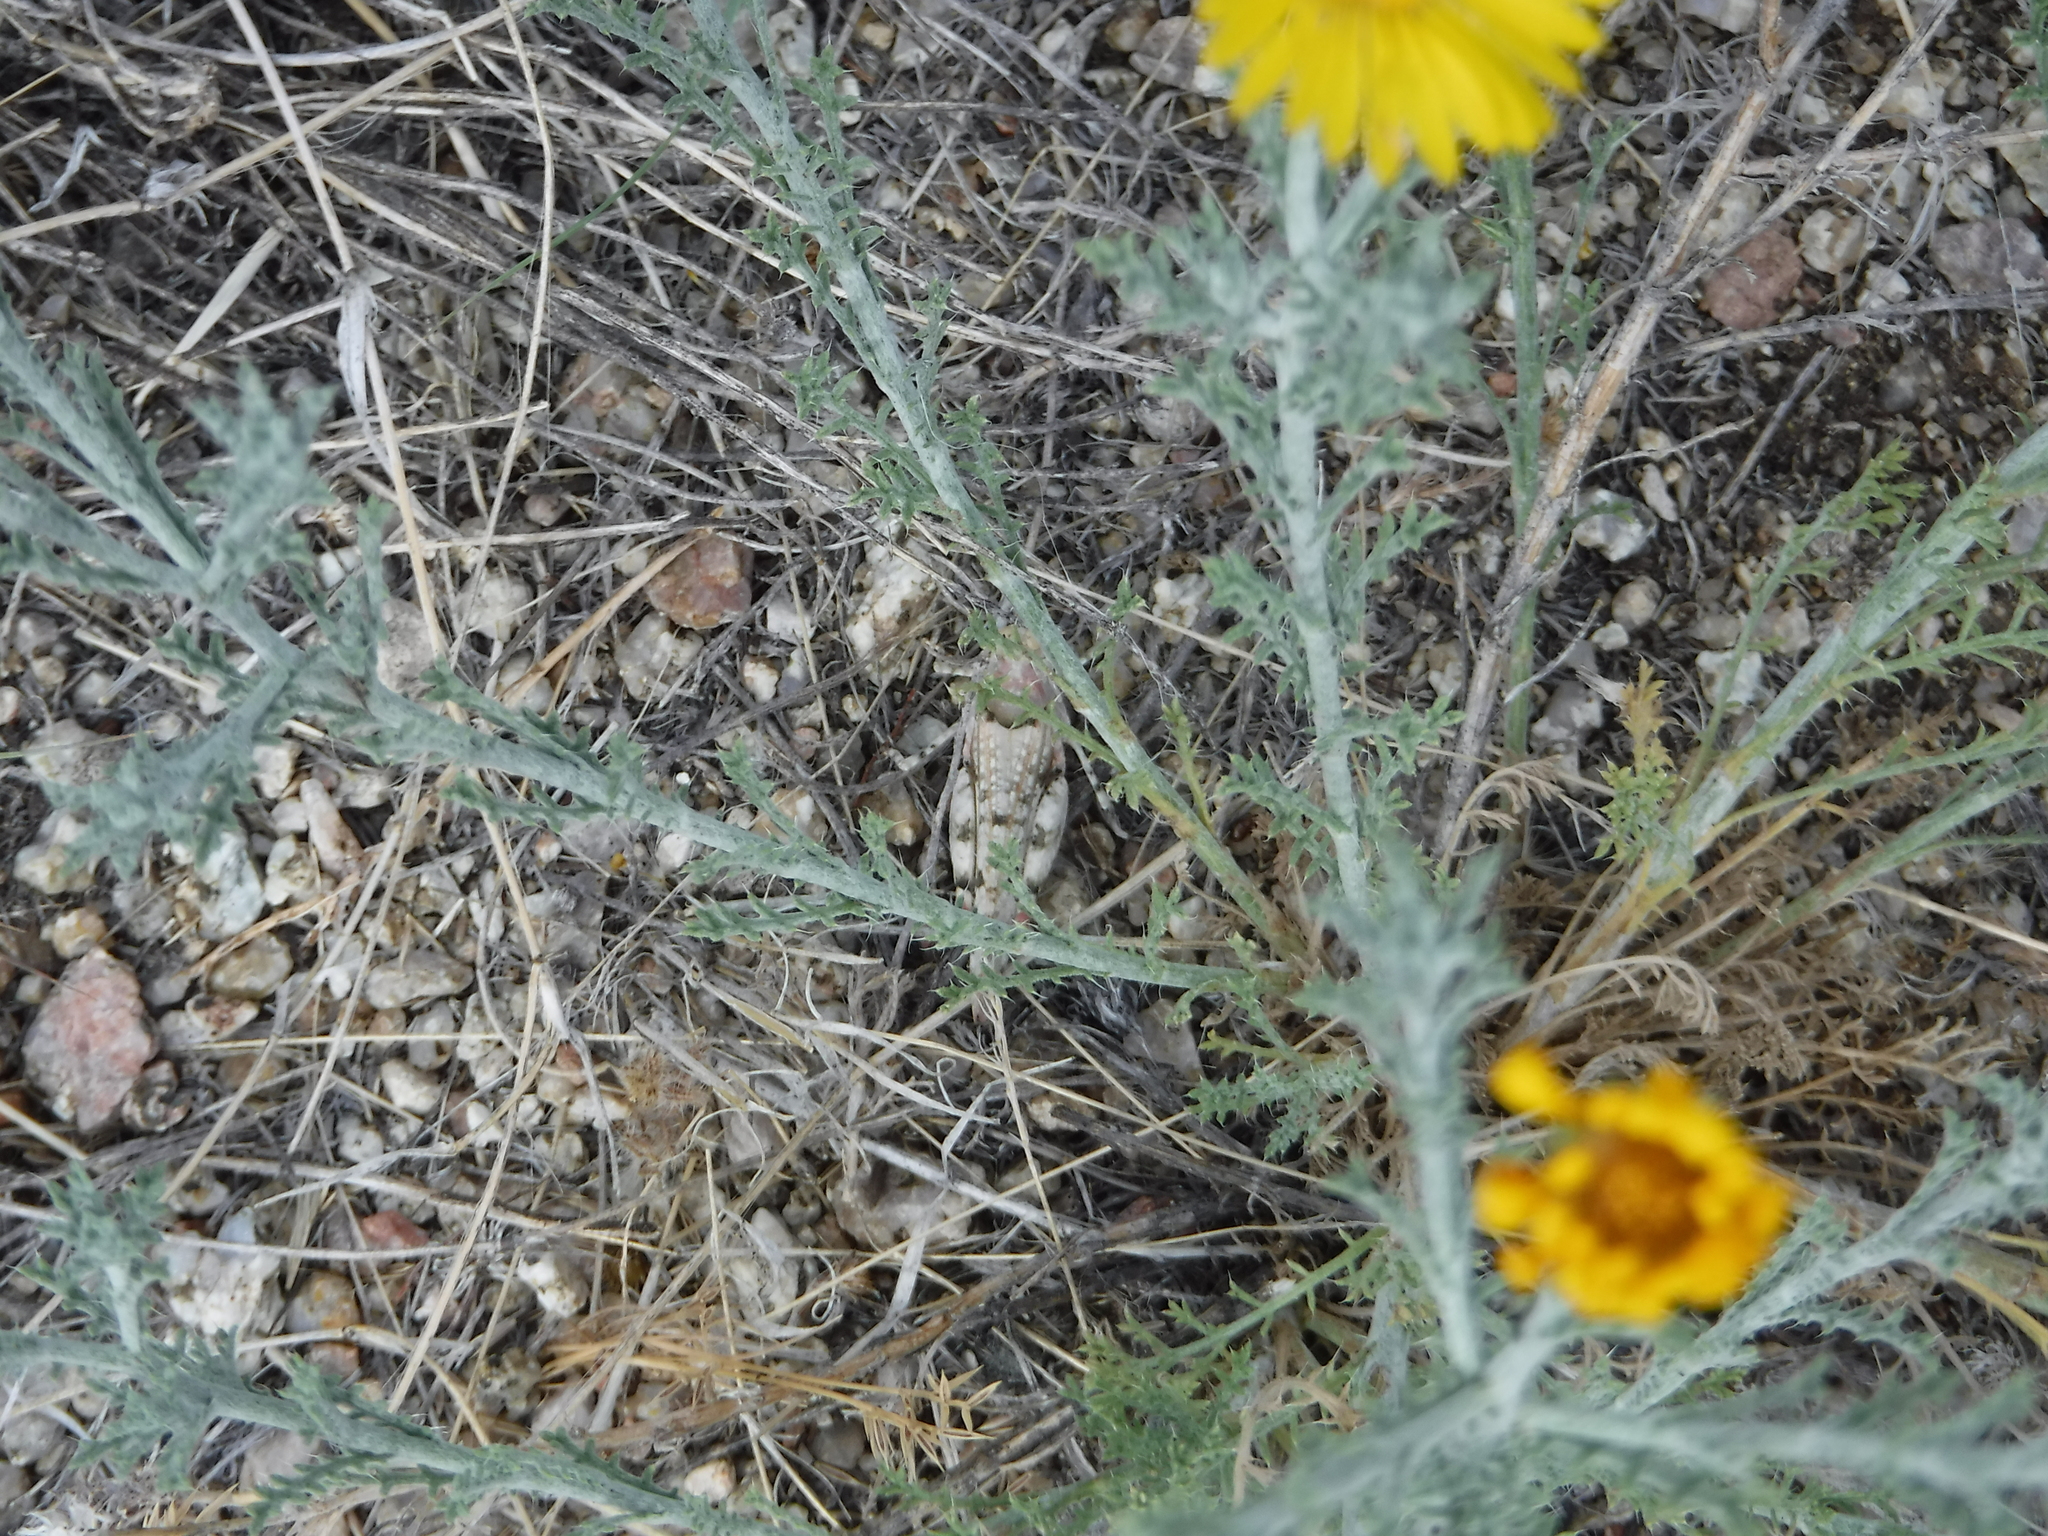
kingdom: Animalia
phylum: Arthropoda
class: Insecta
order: Orthoptera
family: Acrididae
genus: Cibolacris
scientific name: Cibolacris parviceps
